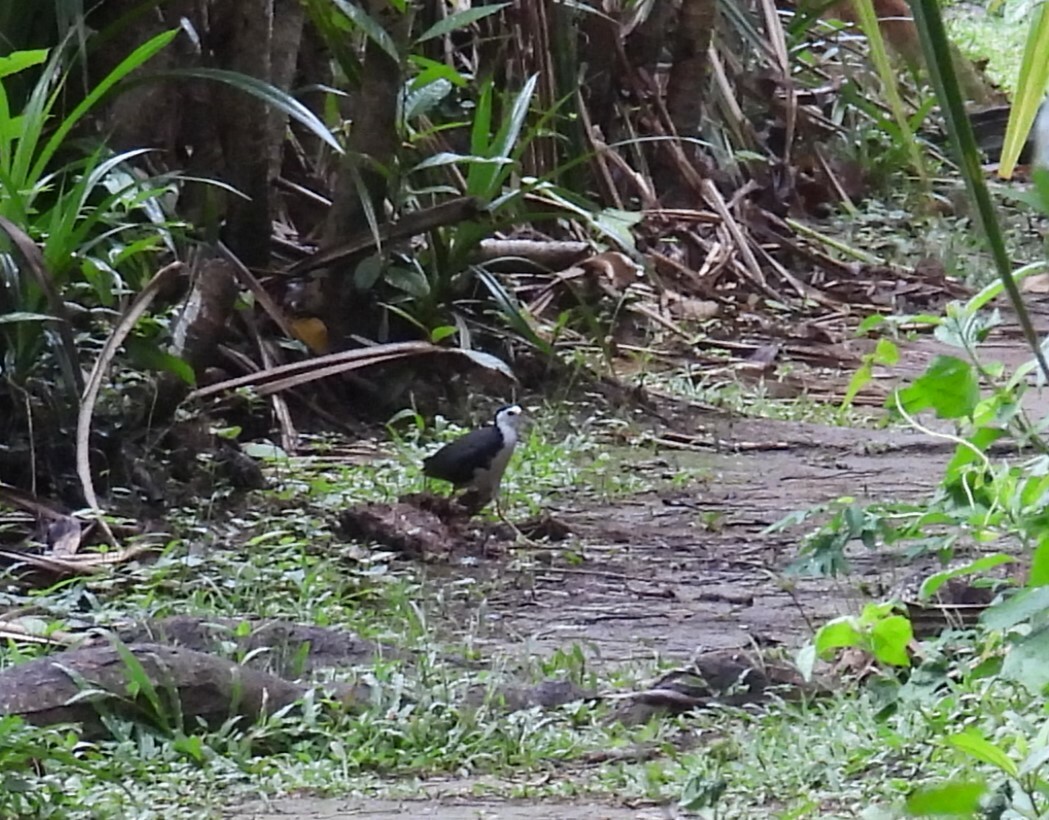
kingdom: Animalia
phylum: Chordata
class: Aves
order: Gruiformes
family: Rallidae
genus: Amaurornis
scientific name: Amaurornis phoenicurus
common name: White-breasted waterhen
